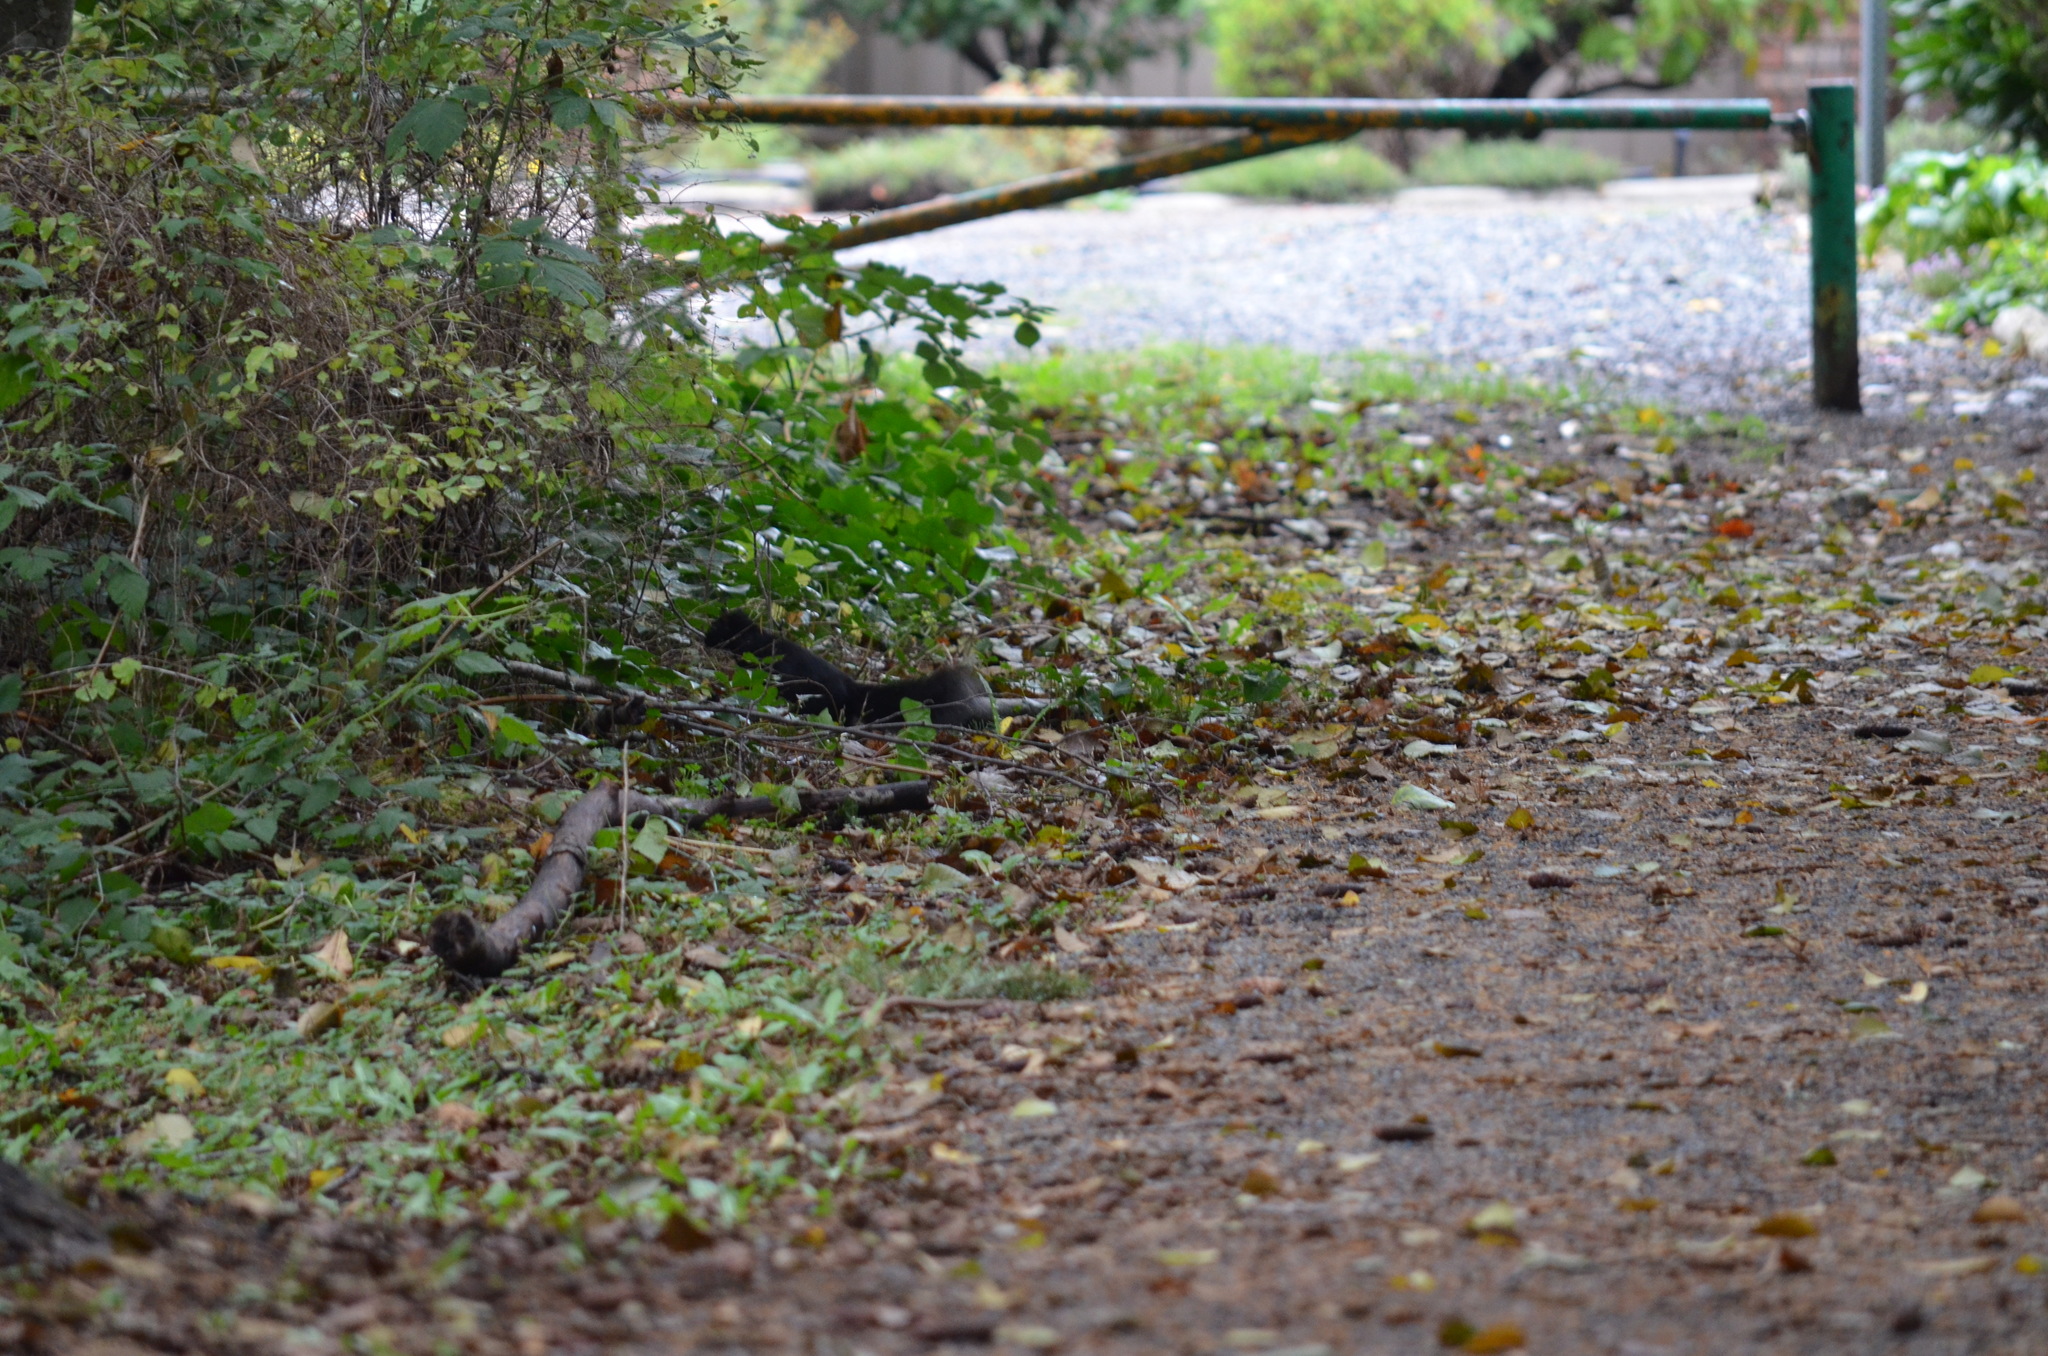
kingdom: Animalia
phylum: Chordata
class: Mammalia
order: Rodentia
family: Sciuridae
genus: Sciurus
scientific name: Sciurus carolinensis
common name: Eastern gray squirrel
